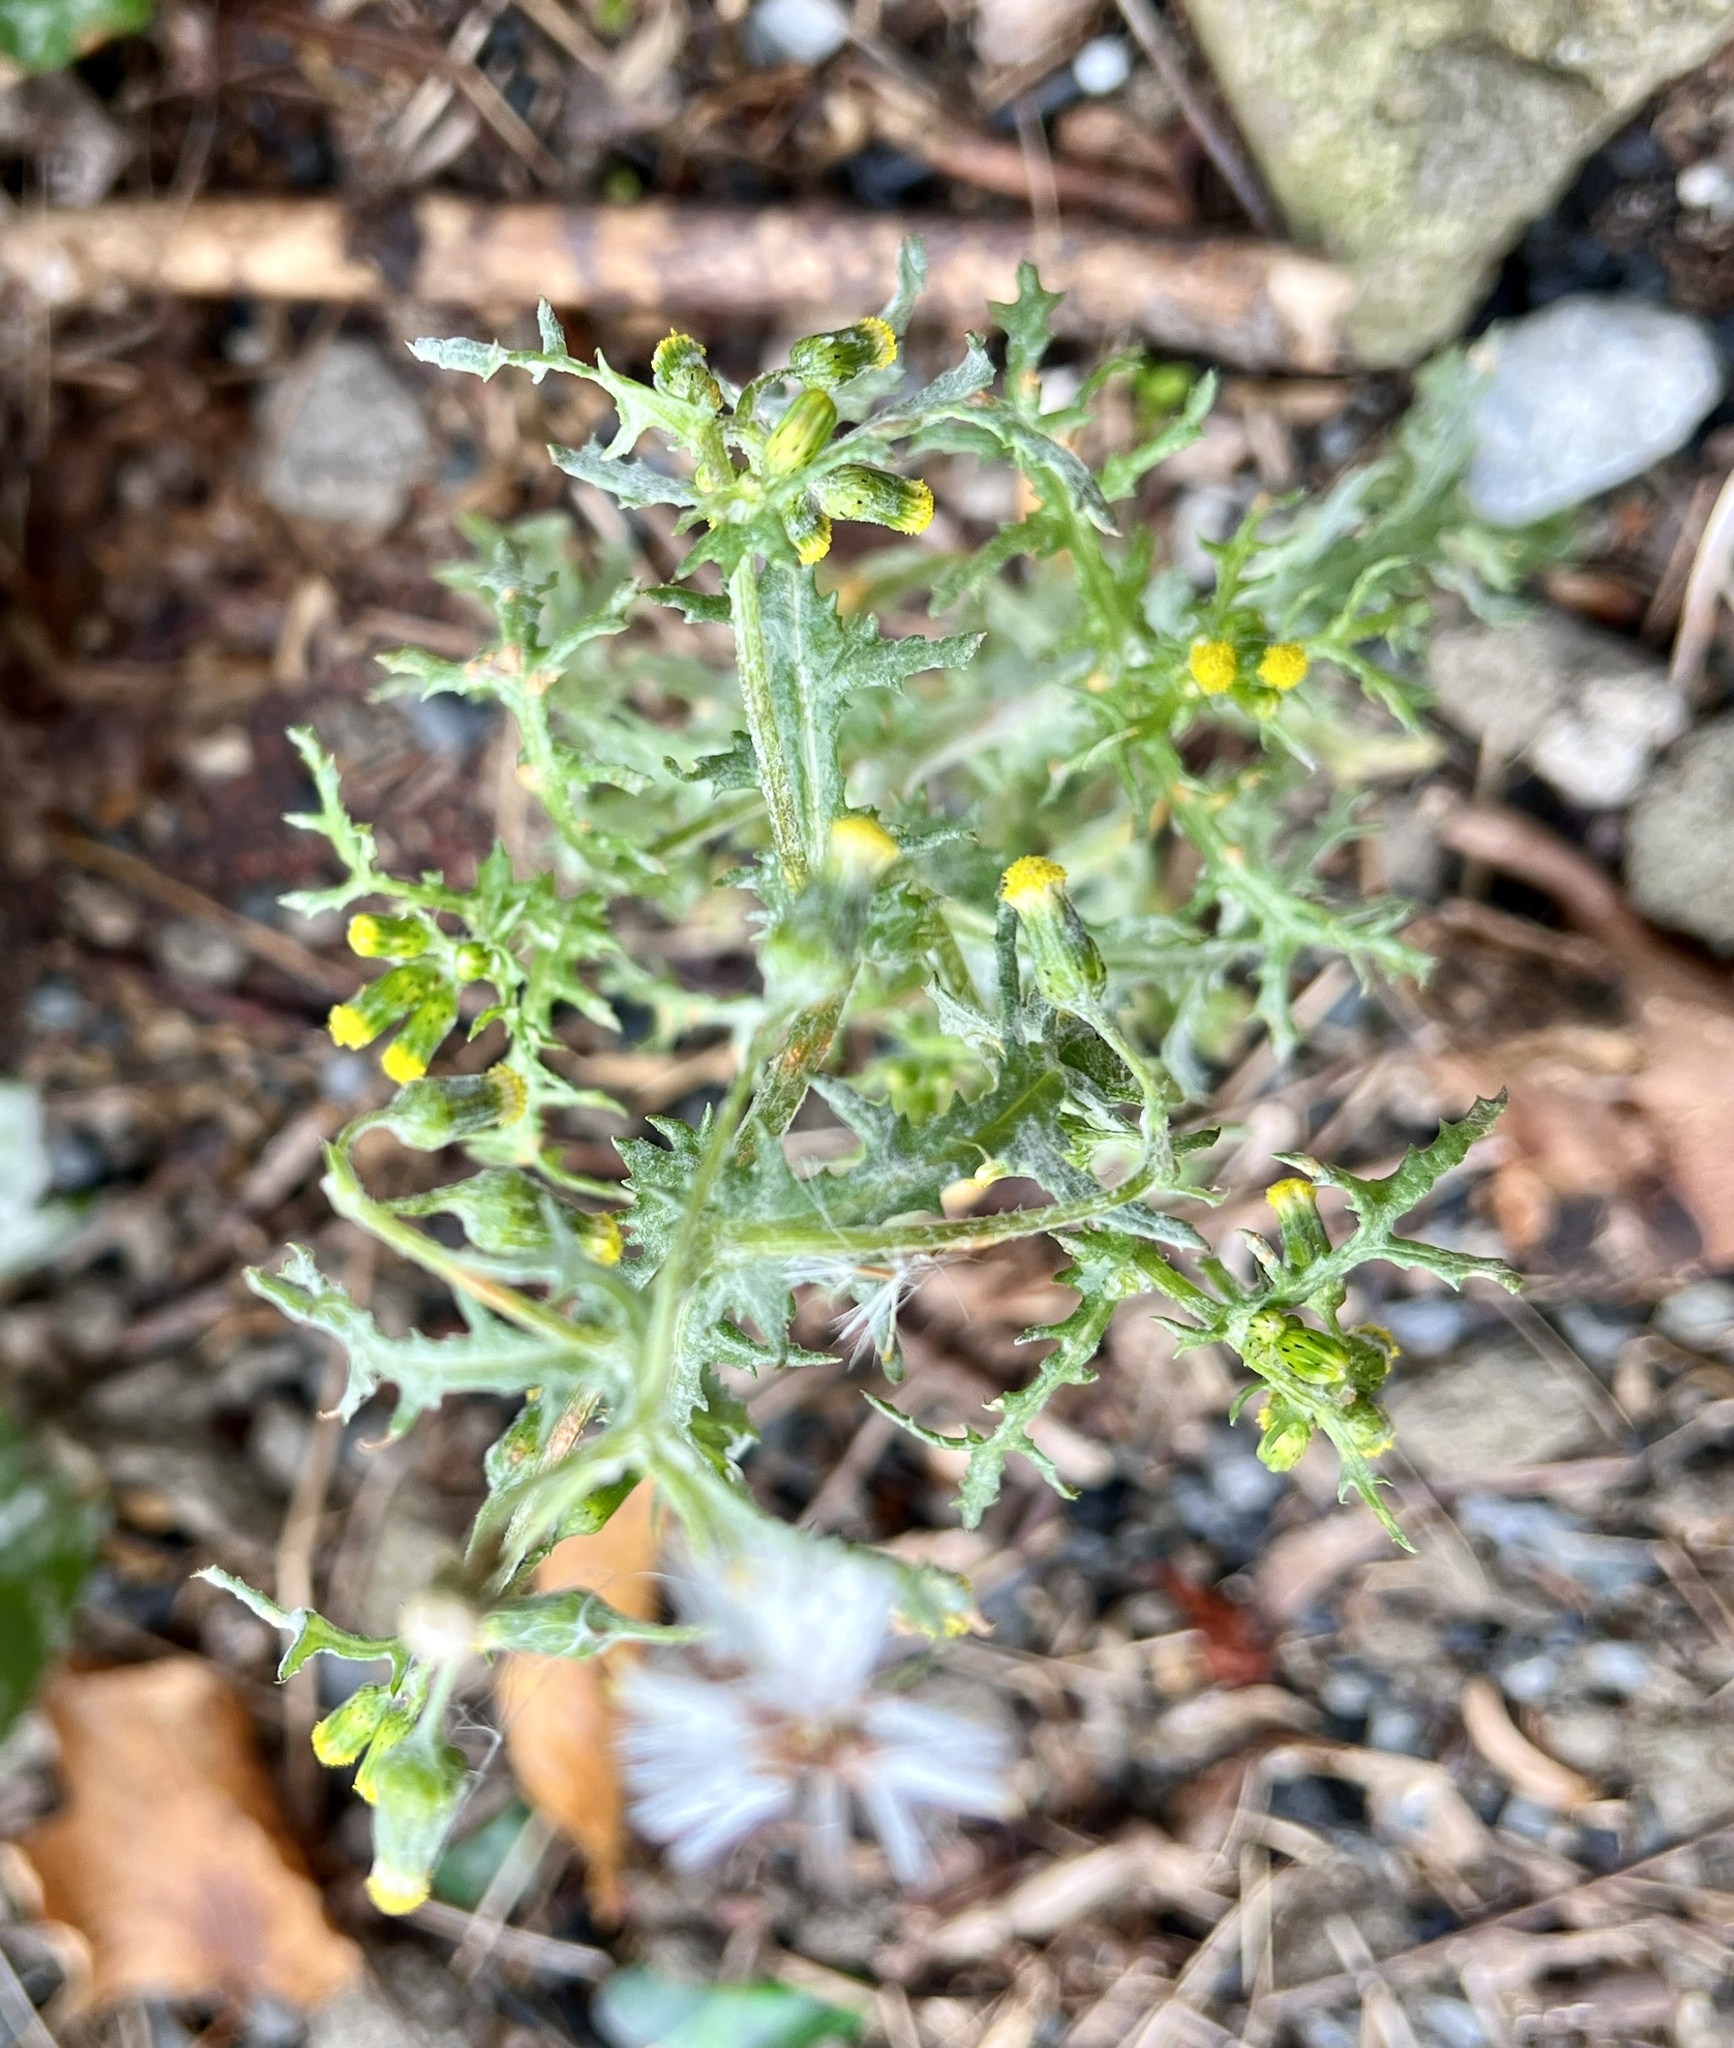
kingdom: Plantae
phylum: Tracheophyta
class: Magnoliopsida
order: Asterales
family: Asteraceae
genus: Senecio
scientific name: Senecio vulgaris
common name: Old-man-in-the-spring
